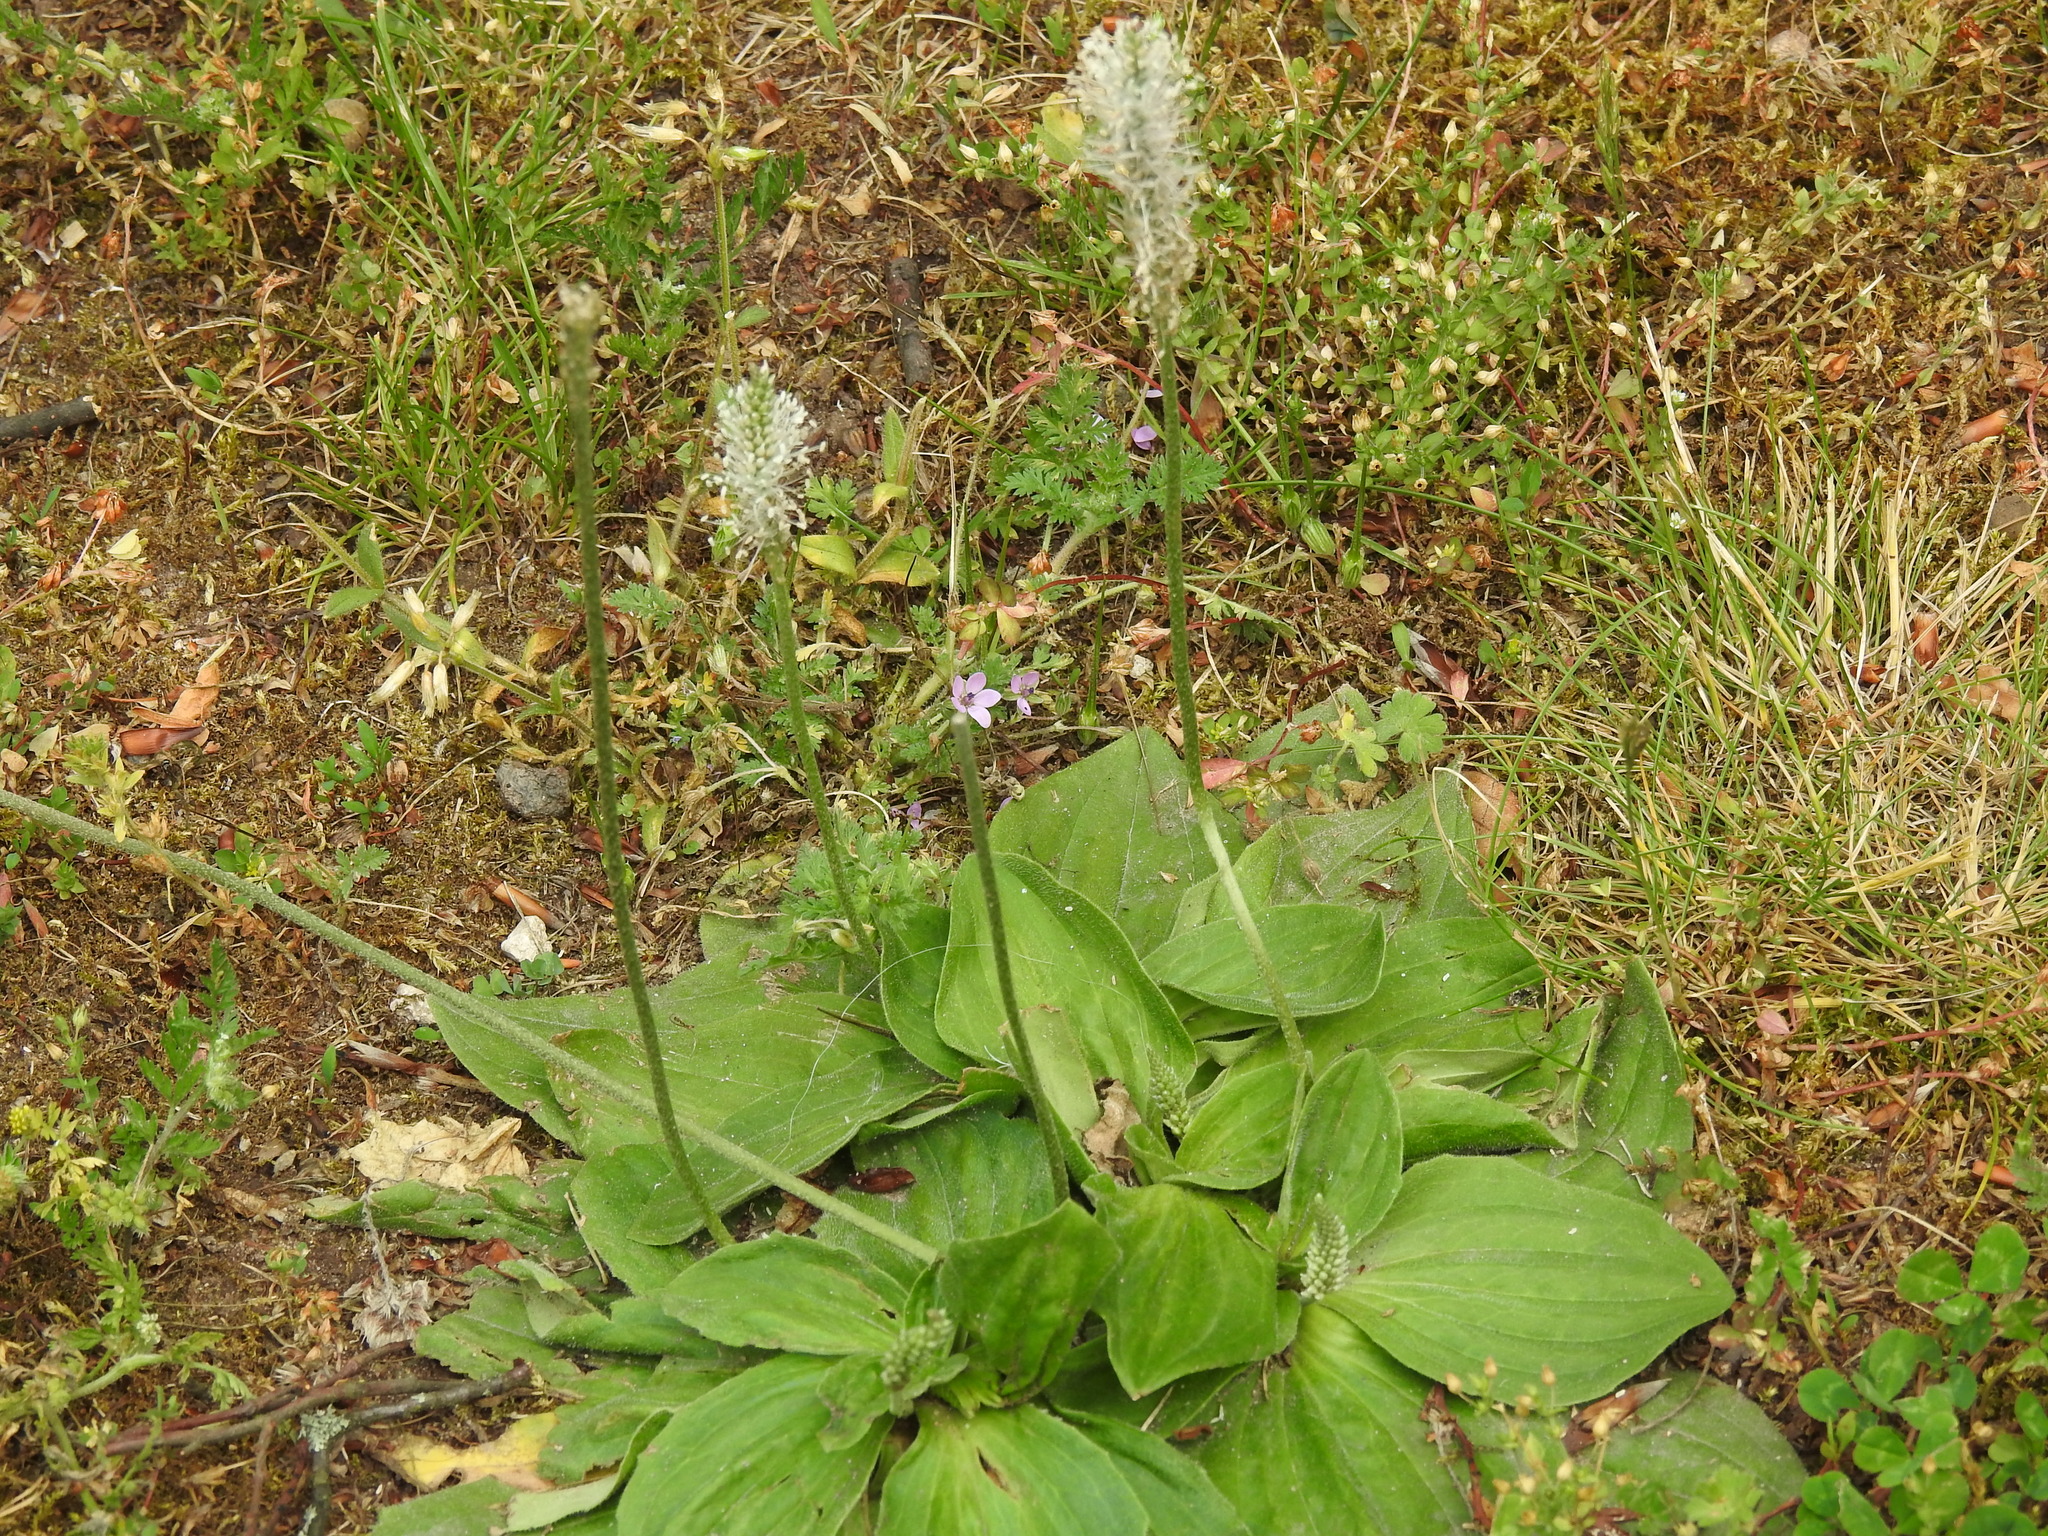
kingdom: Plantae
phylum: Tracheophyta
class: Magnoliopsida
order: Lamiales
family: Plantaginaceae
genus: Plantago
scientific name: Plantago media
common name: Hoary plantain
